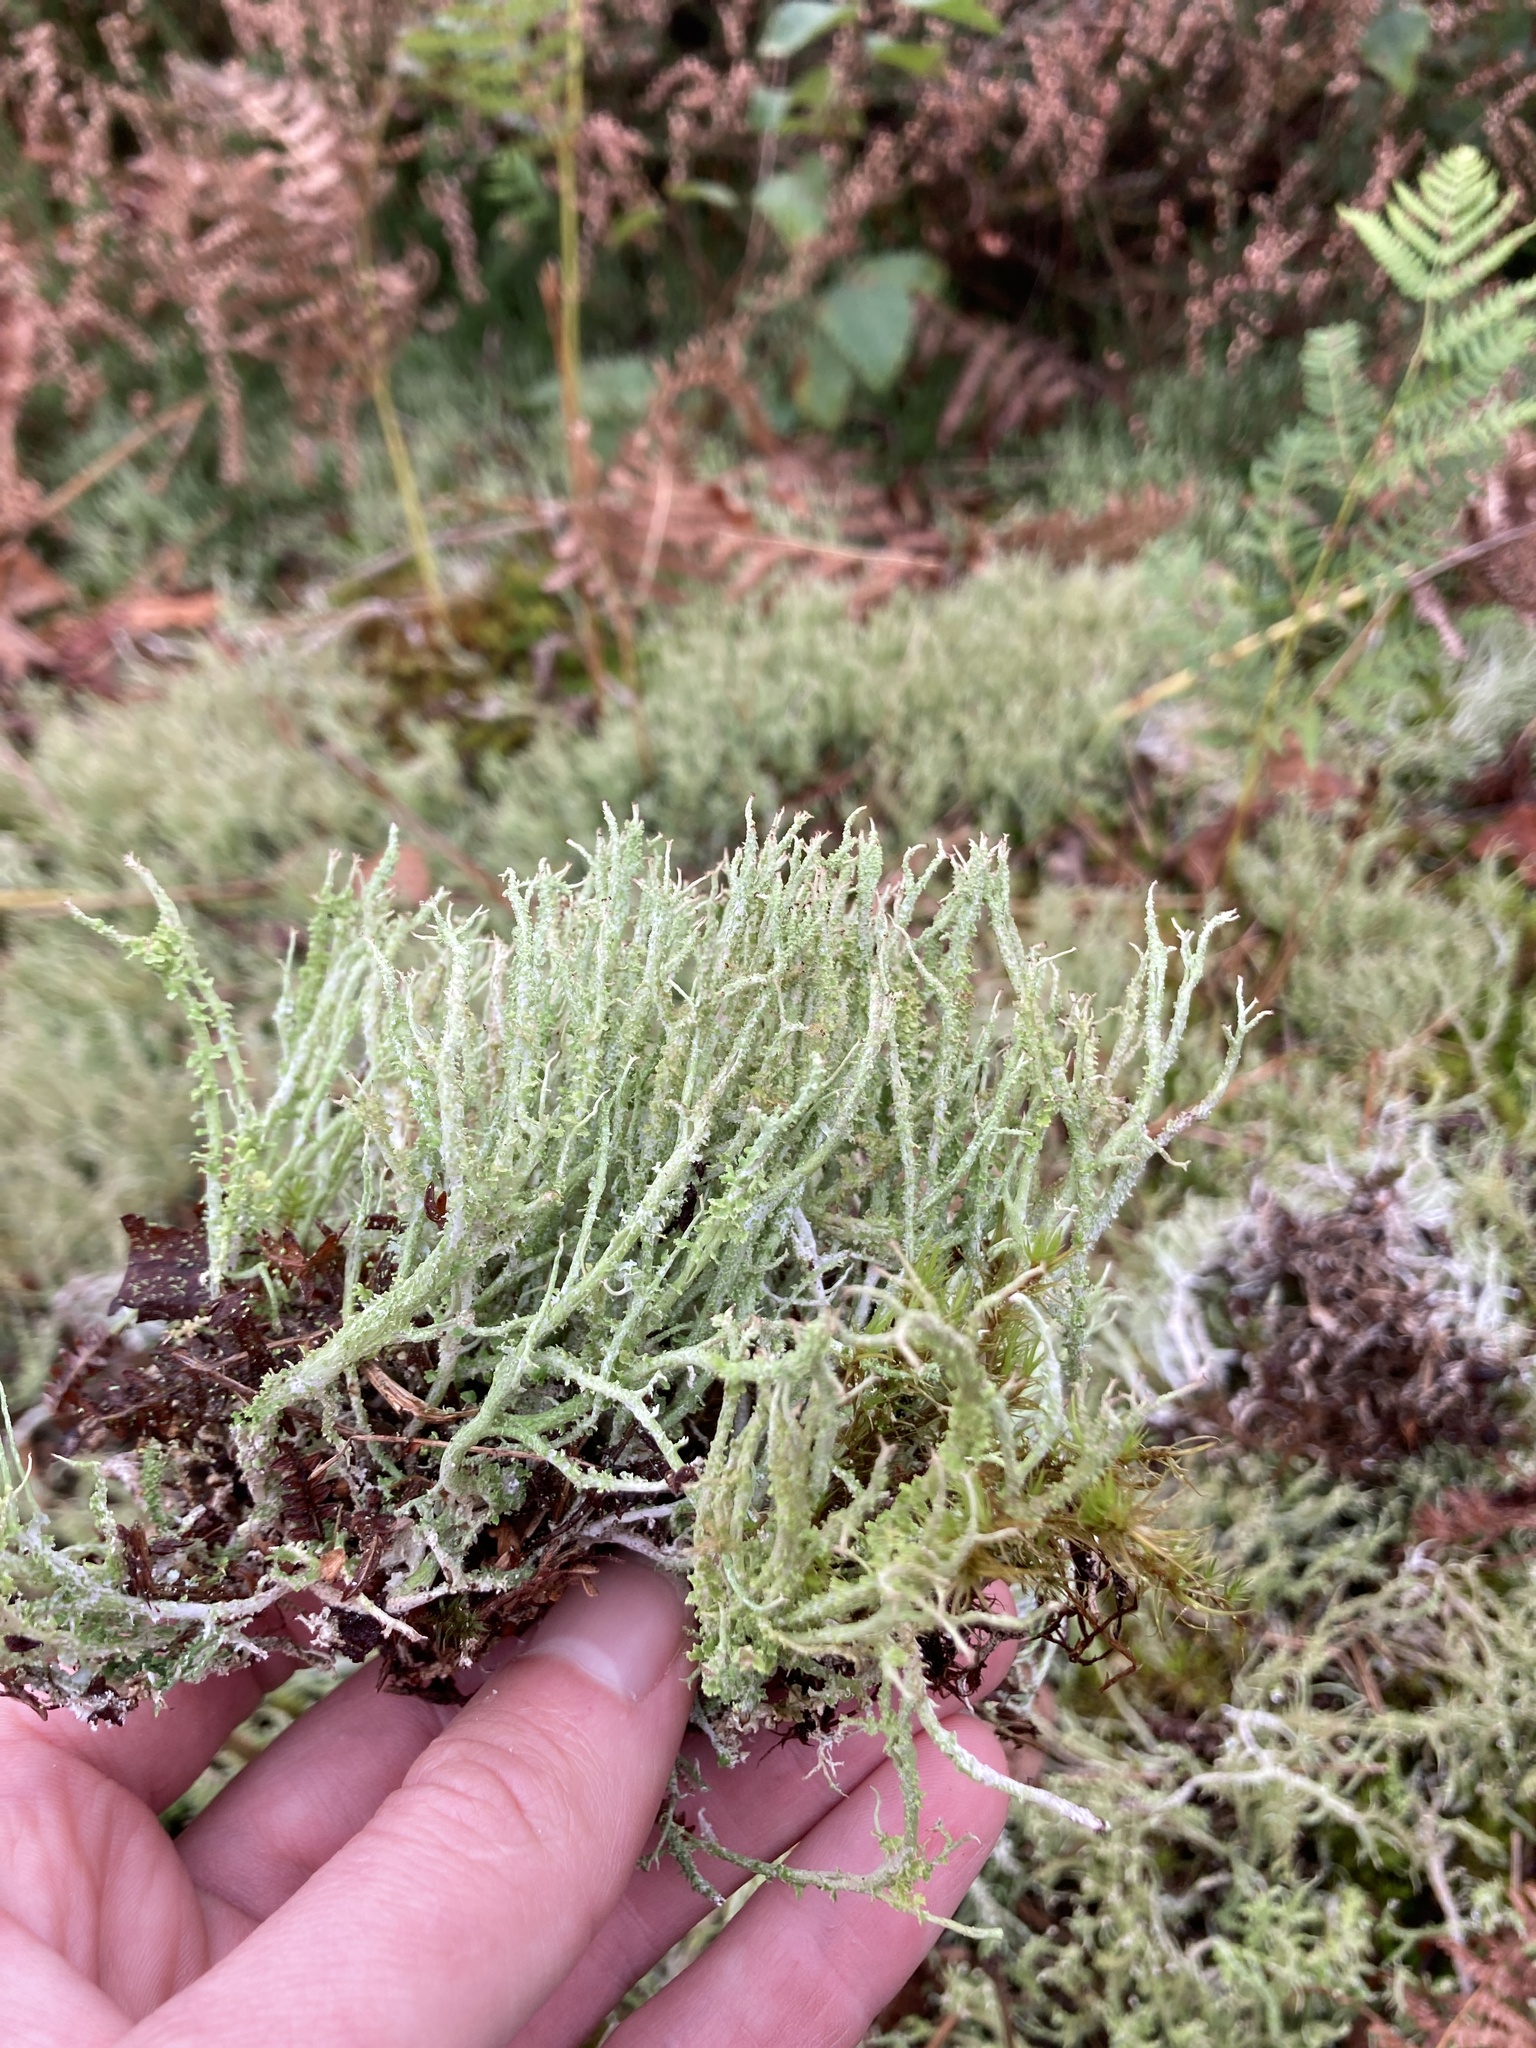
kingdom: Fungi
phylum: Ascomycota
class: Lecanoromycetes
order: Lecanorales
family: Cladoniaceae
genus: Cladonia
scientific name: Cladonia scabriuscula
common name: Mealy forked clad lichen
